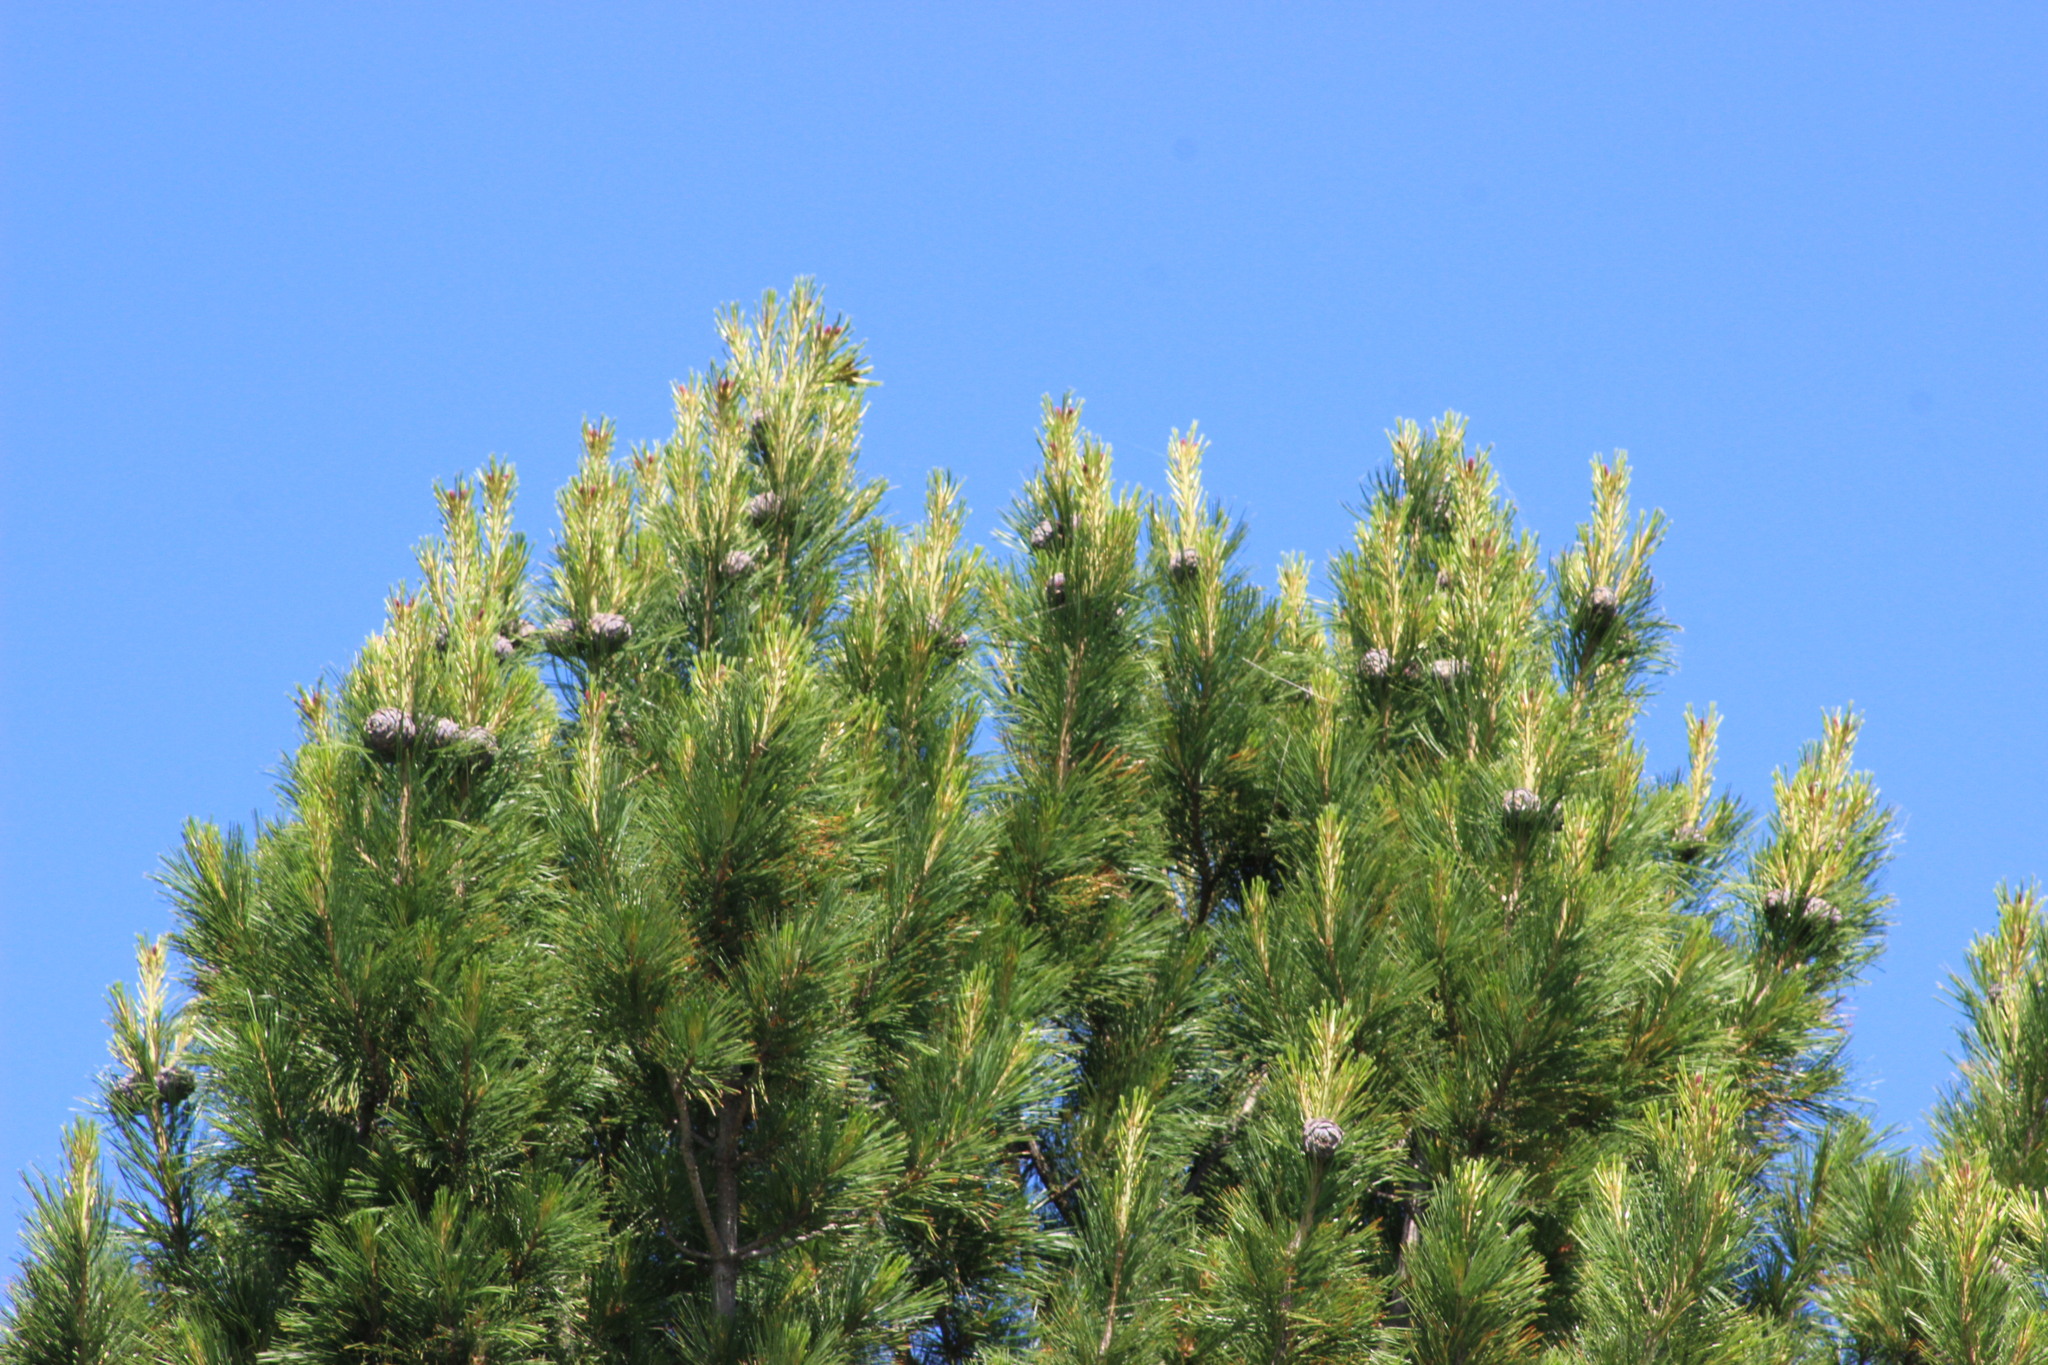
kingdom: Plantae
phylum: Tracheophyta
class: Pinopsida
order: Pinales
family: Pinaceae
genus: Pinus
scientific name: Pinus sibirica
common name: Siberian pine
